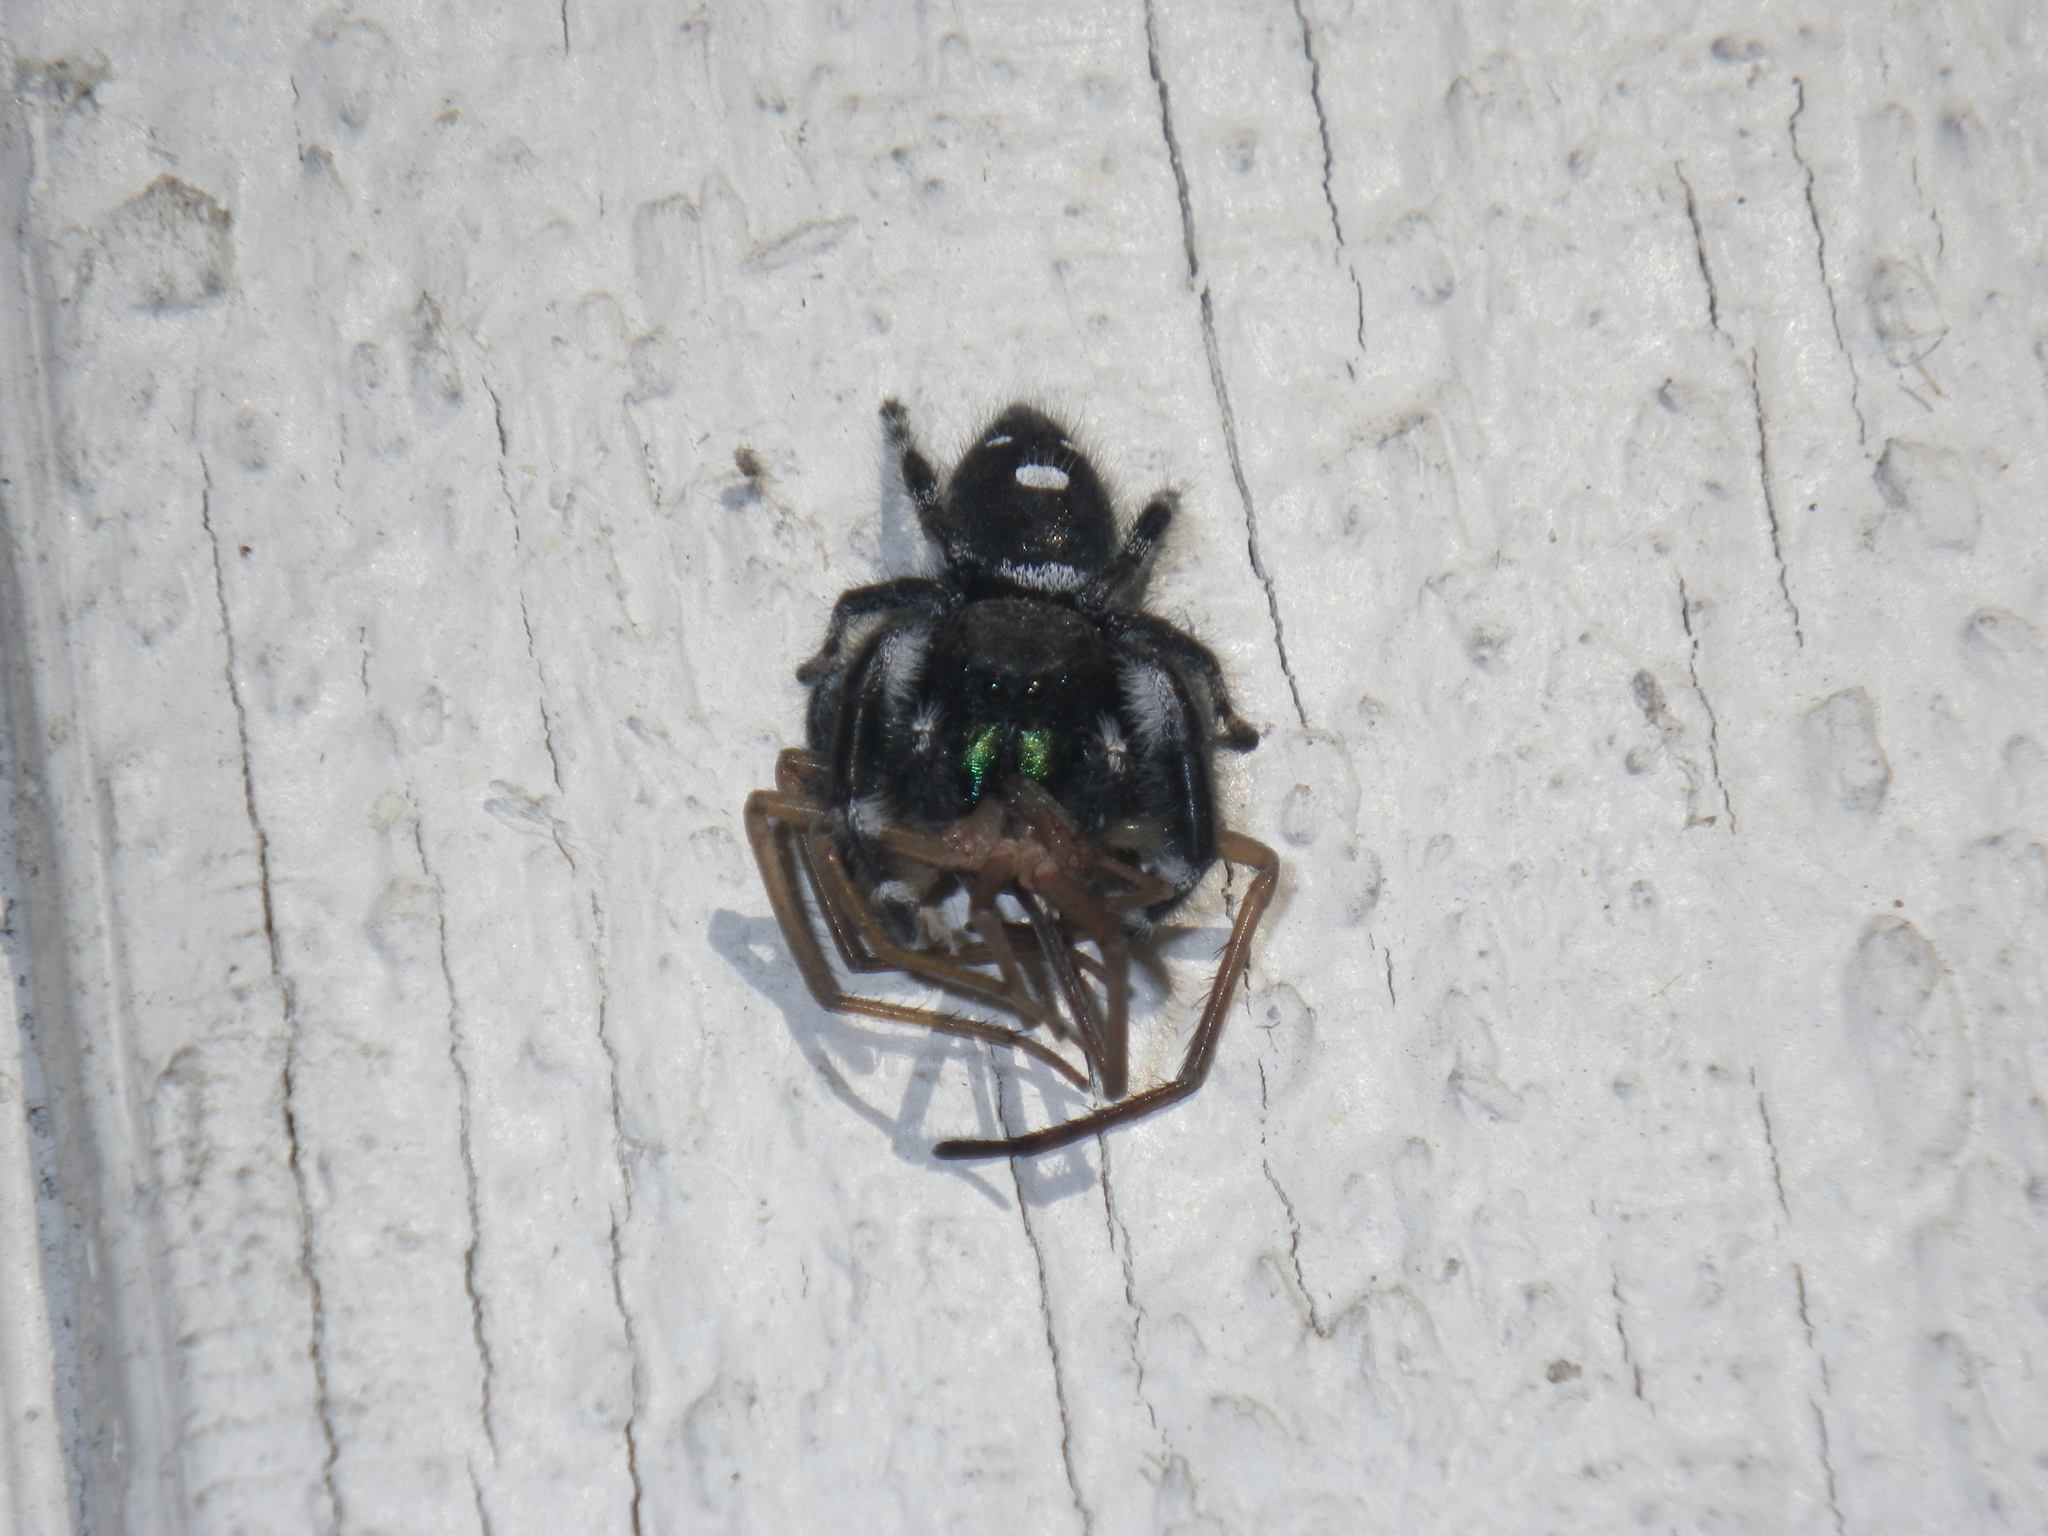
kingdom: Animalia
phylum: Arthropoda
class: Arachnida
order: Araneae
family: Salticidae
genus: Phidippus
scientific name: Phidippus audax
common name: Bold jumper
